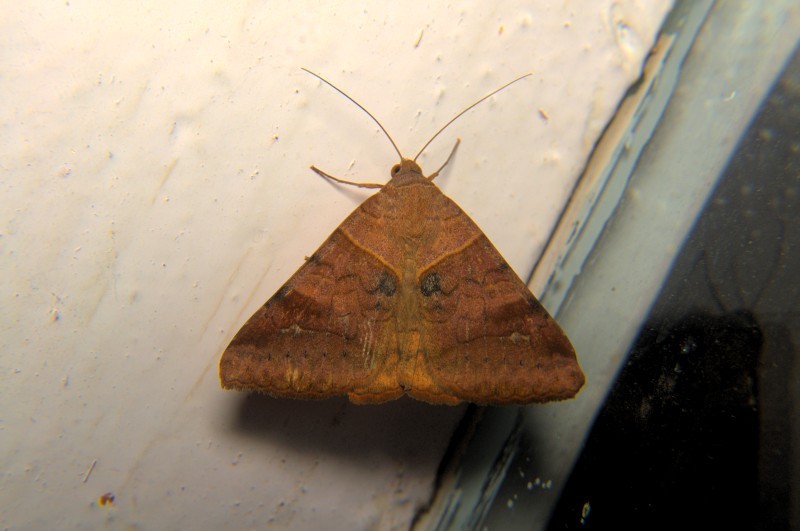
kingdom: Animalia
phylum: Arthropoda
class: Insecta
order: Lepidoptera
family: Erebidae
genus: Mocis
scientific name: Mocis undata
